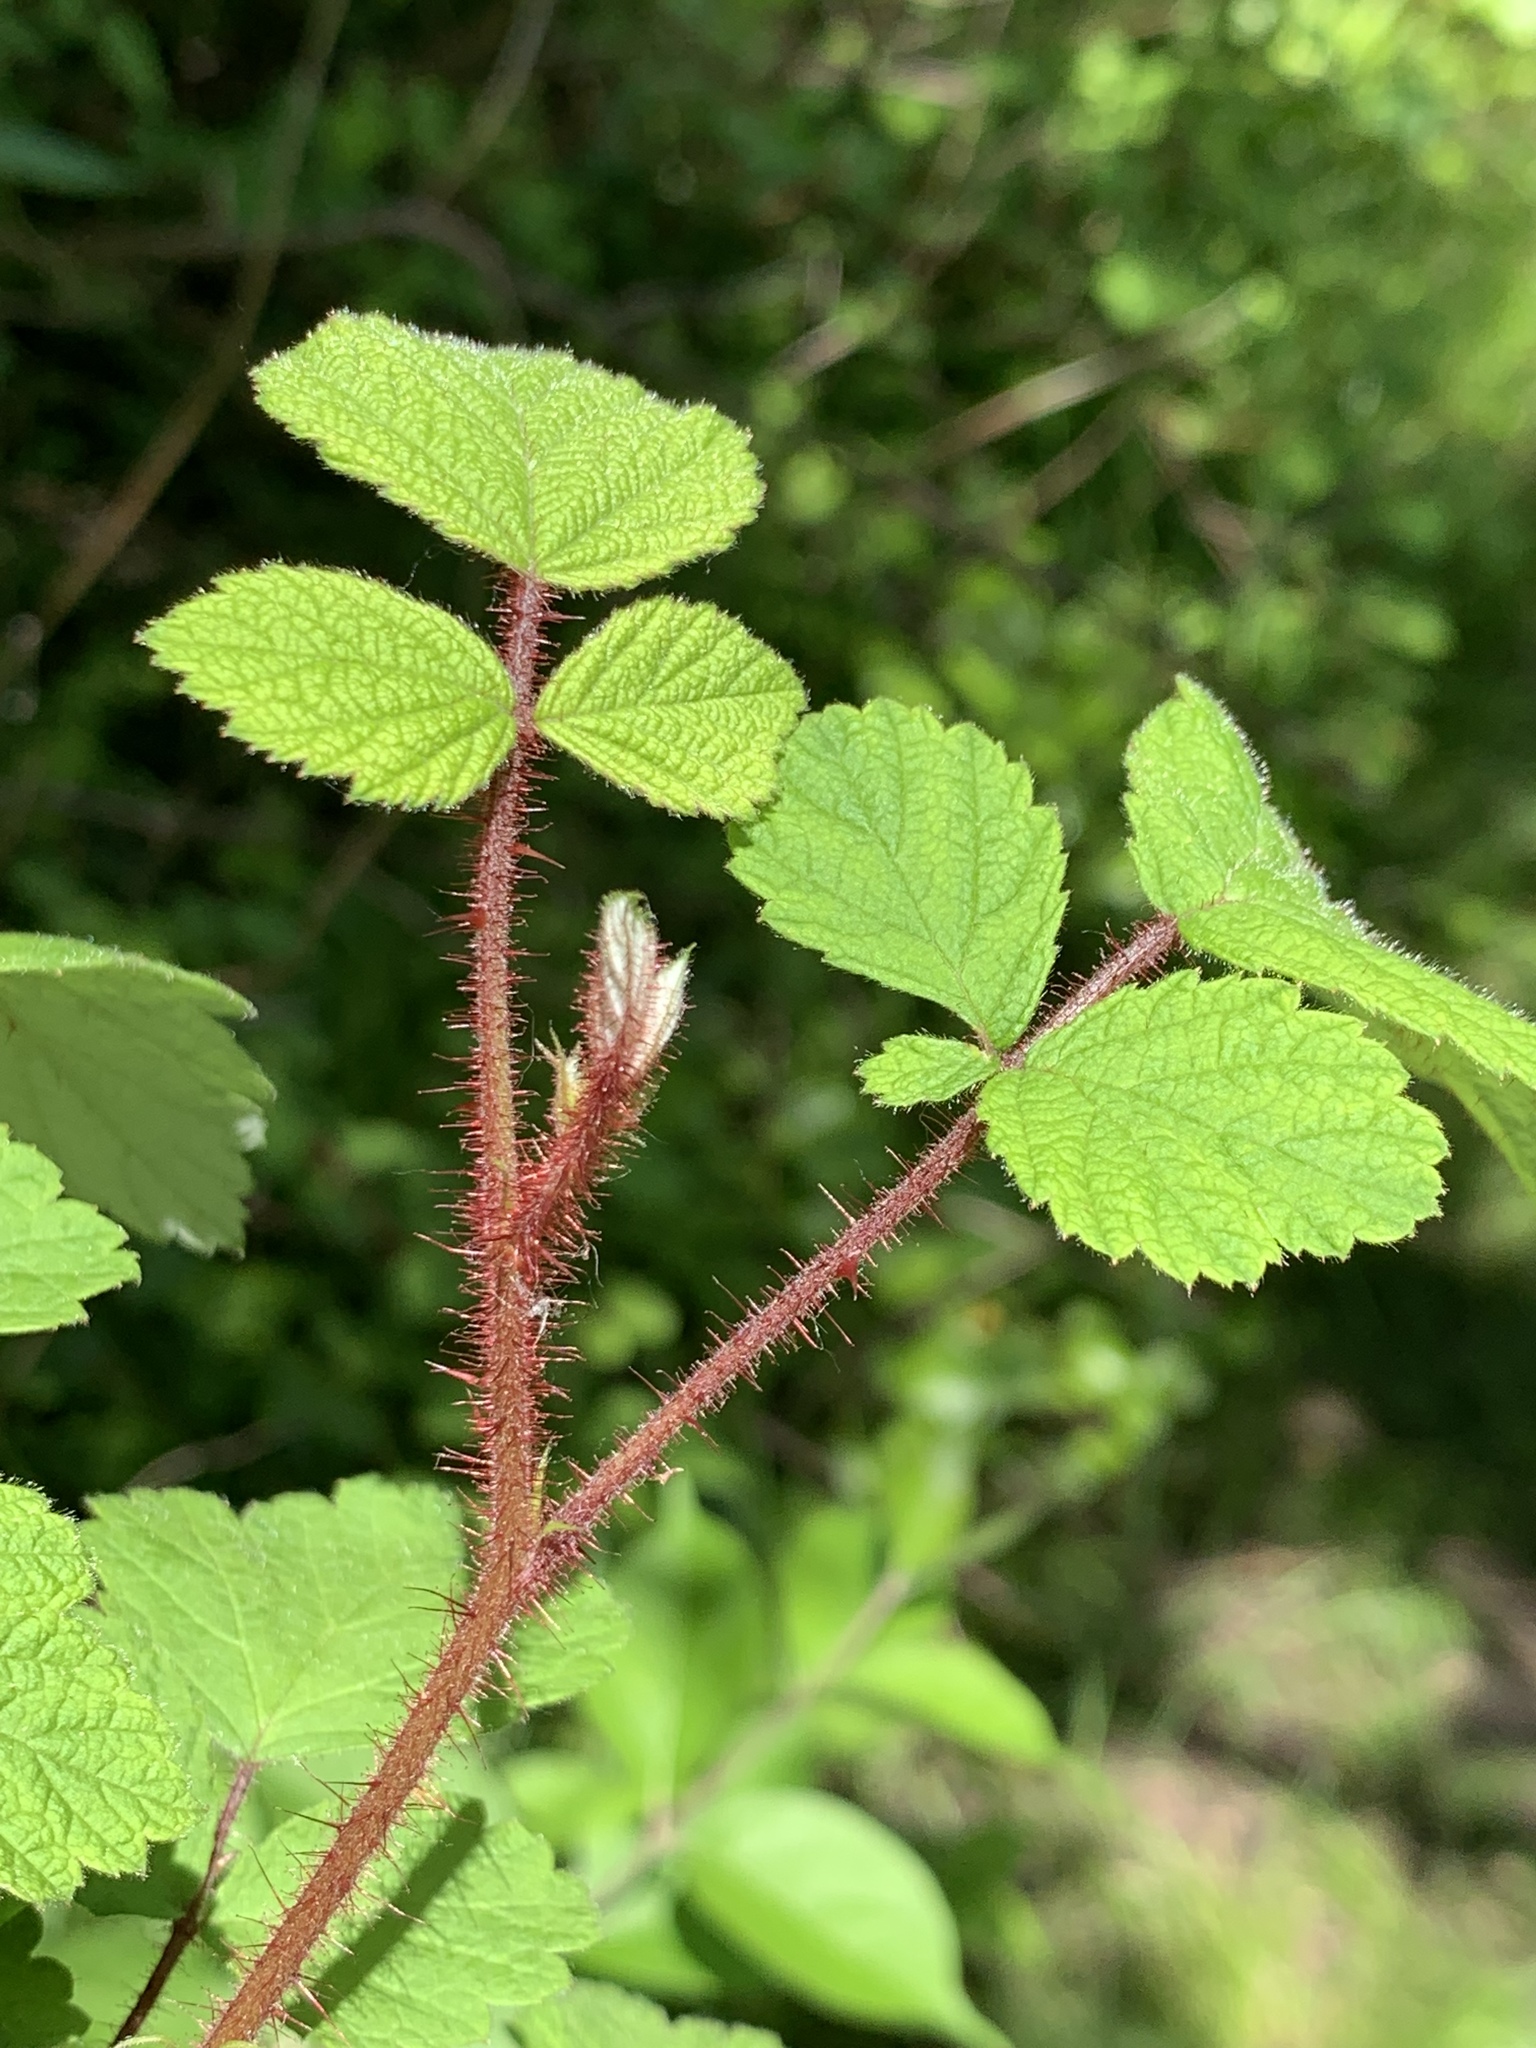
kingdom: Plantae
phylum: Tracheophyta
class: Magnoliopsida
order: Rosales
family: Rosaceae
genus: Rubus
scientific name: Rubus phoenicolasius
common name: Japanese wineberry
